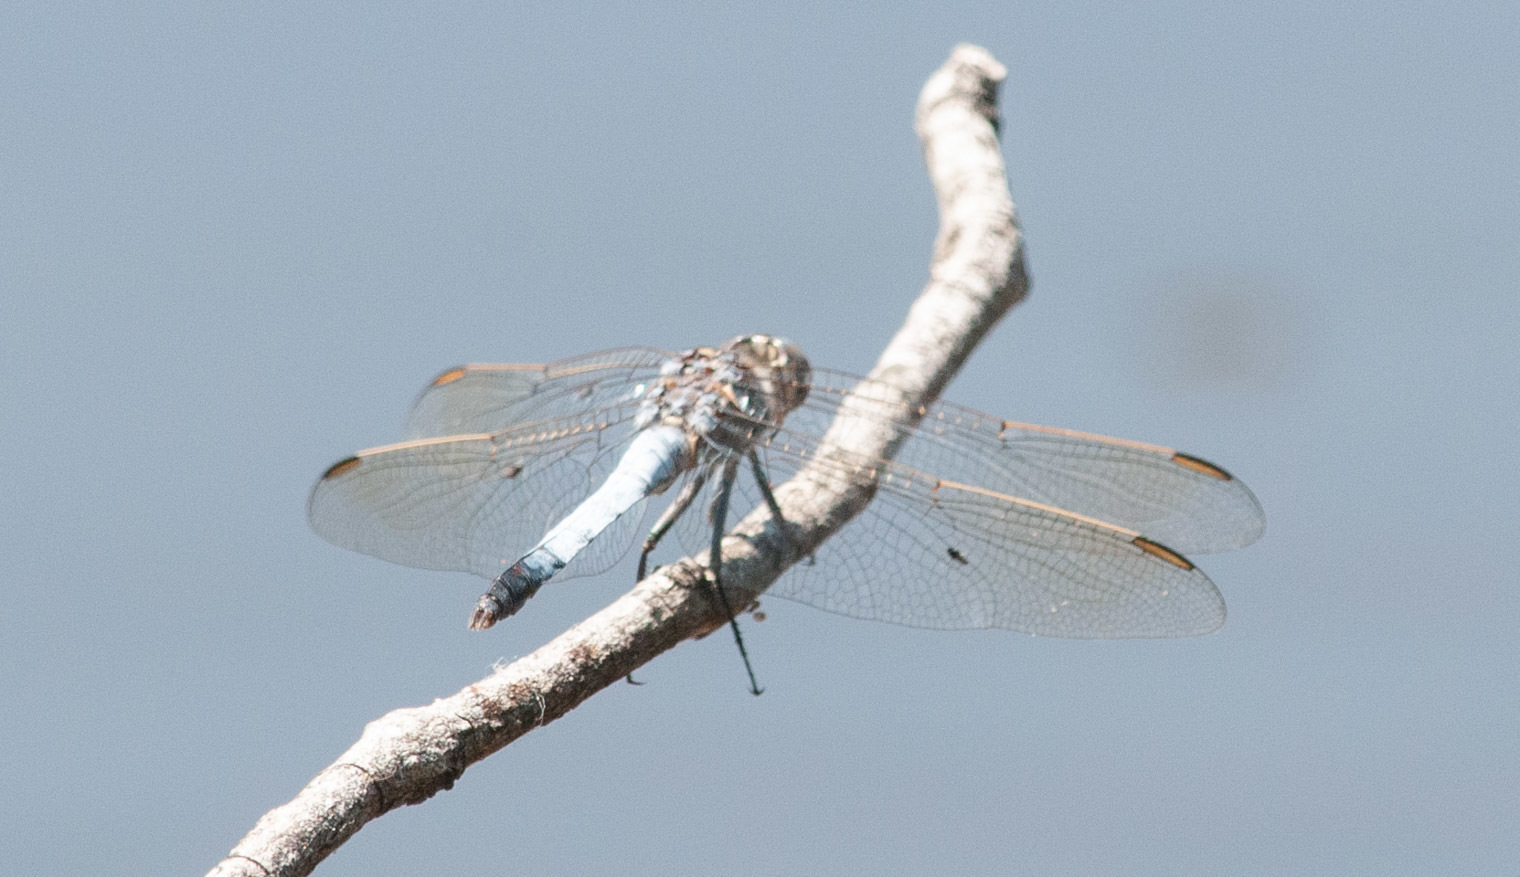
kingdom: Animalia
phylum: Arthropoda
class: Insecta
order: Odonata
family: Libellulidae
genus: Orthetrum
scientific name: Orthetrum caledonicum
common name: Blue skimmer
